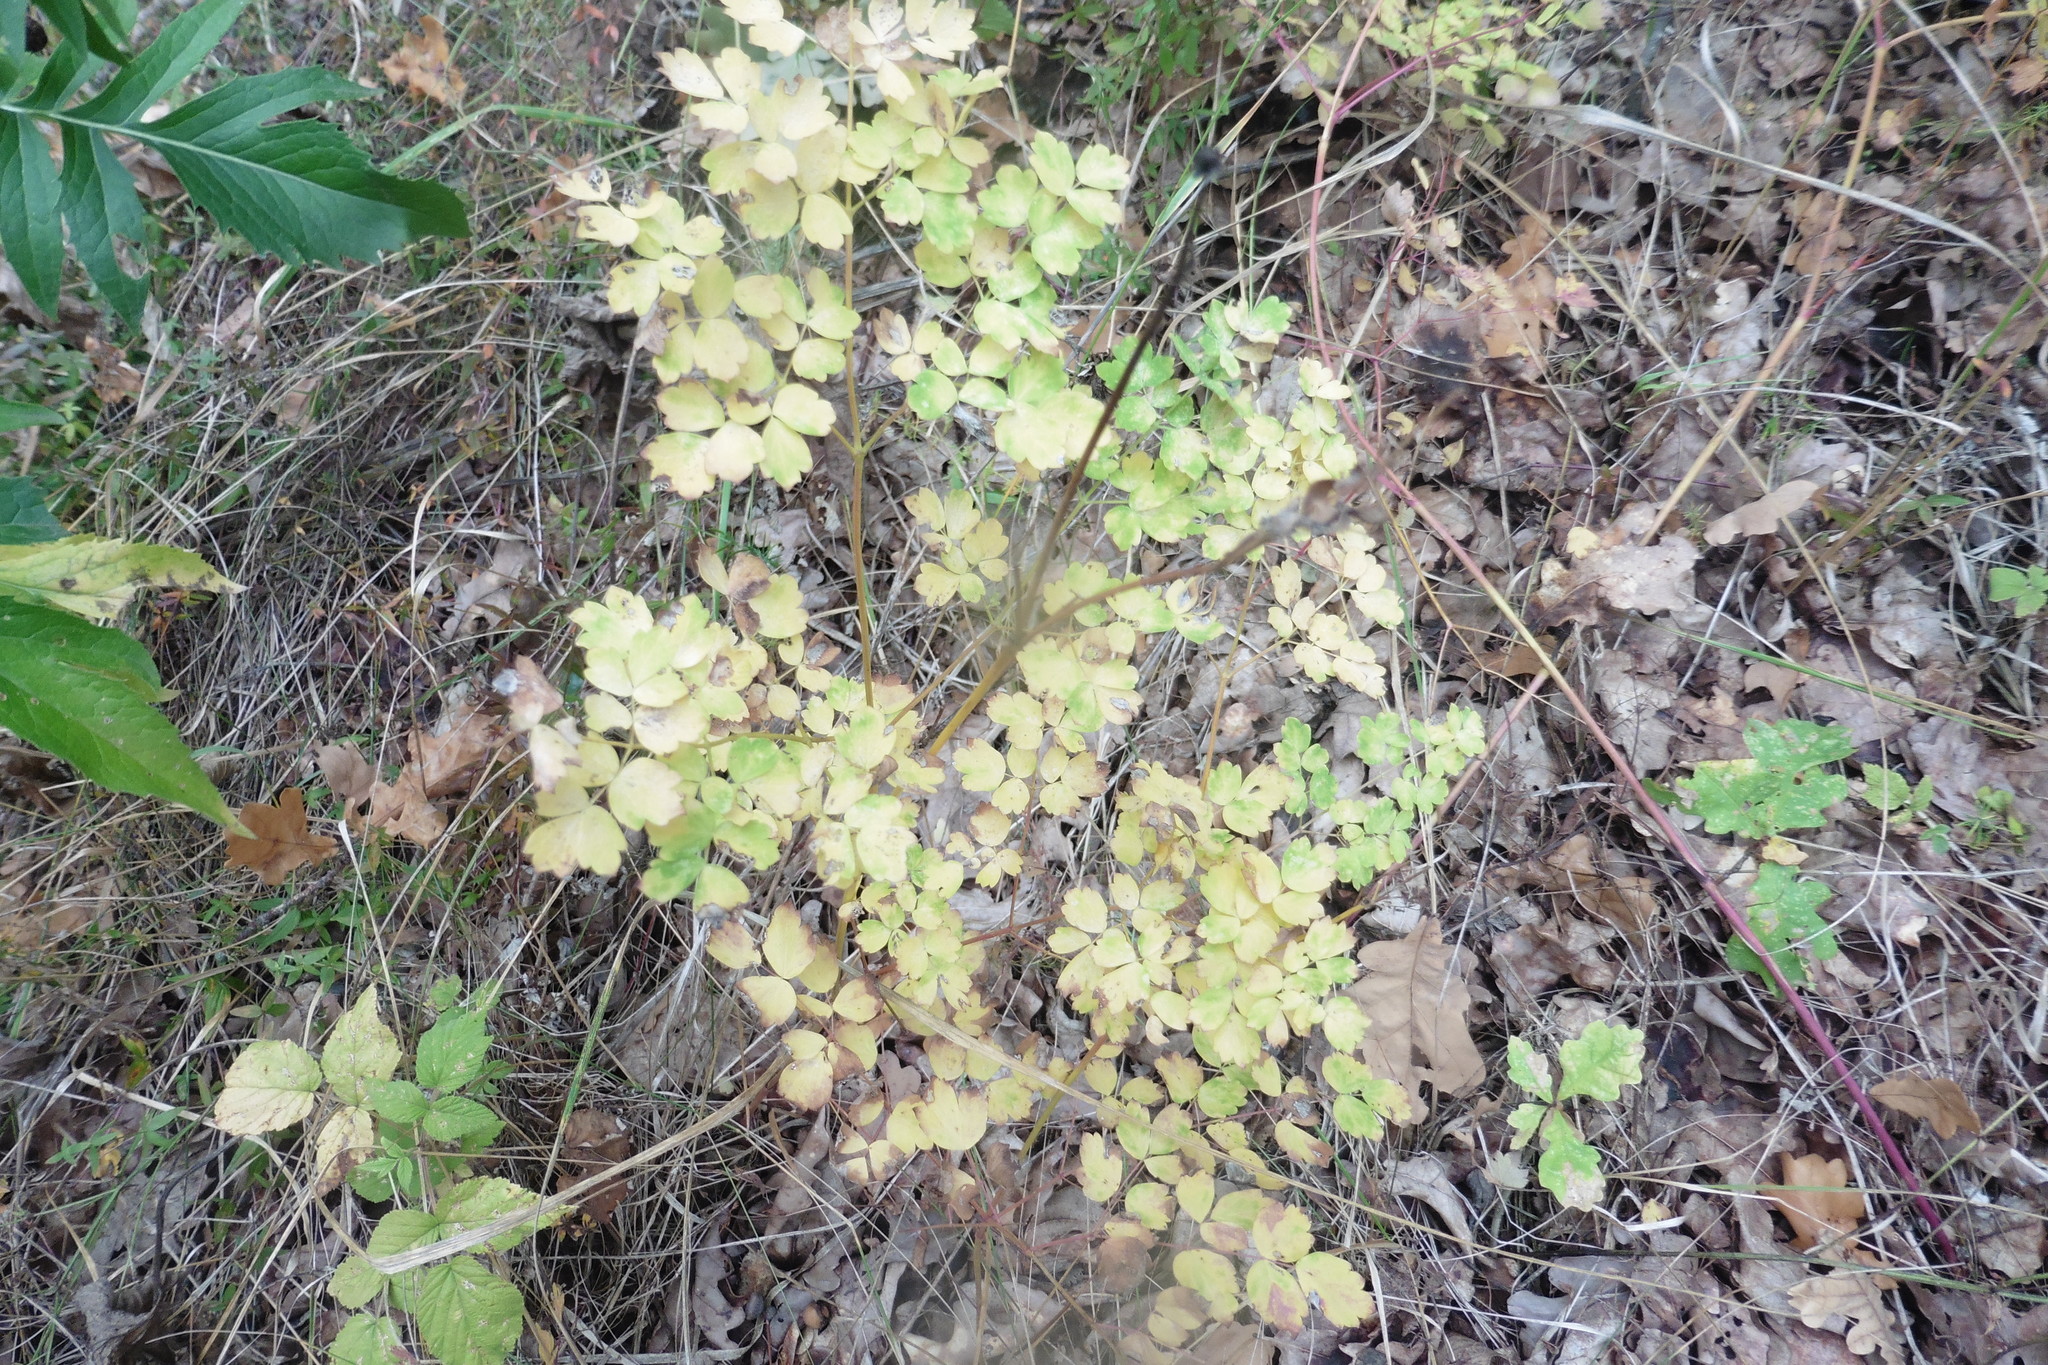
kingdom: Plantae
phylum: Tracheophyta
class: Magnoliopsida
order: Ranunculales
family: Ranunculaceae
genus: Thalictrum
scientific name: Thalictrum minus
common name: Lesser meadow-rue
